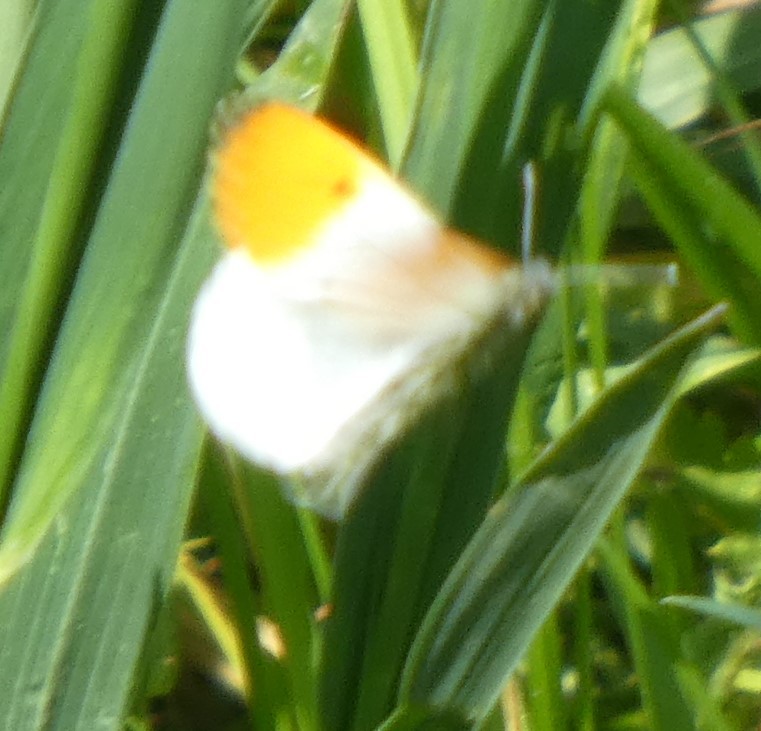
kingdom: Animalia
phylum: Arthropoda
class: Insecta
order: Lepidoptera
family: Pieridae
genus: Anthocharis
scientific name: Anthocharis cardamines
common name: Orange-tip
